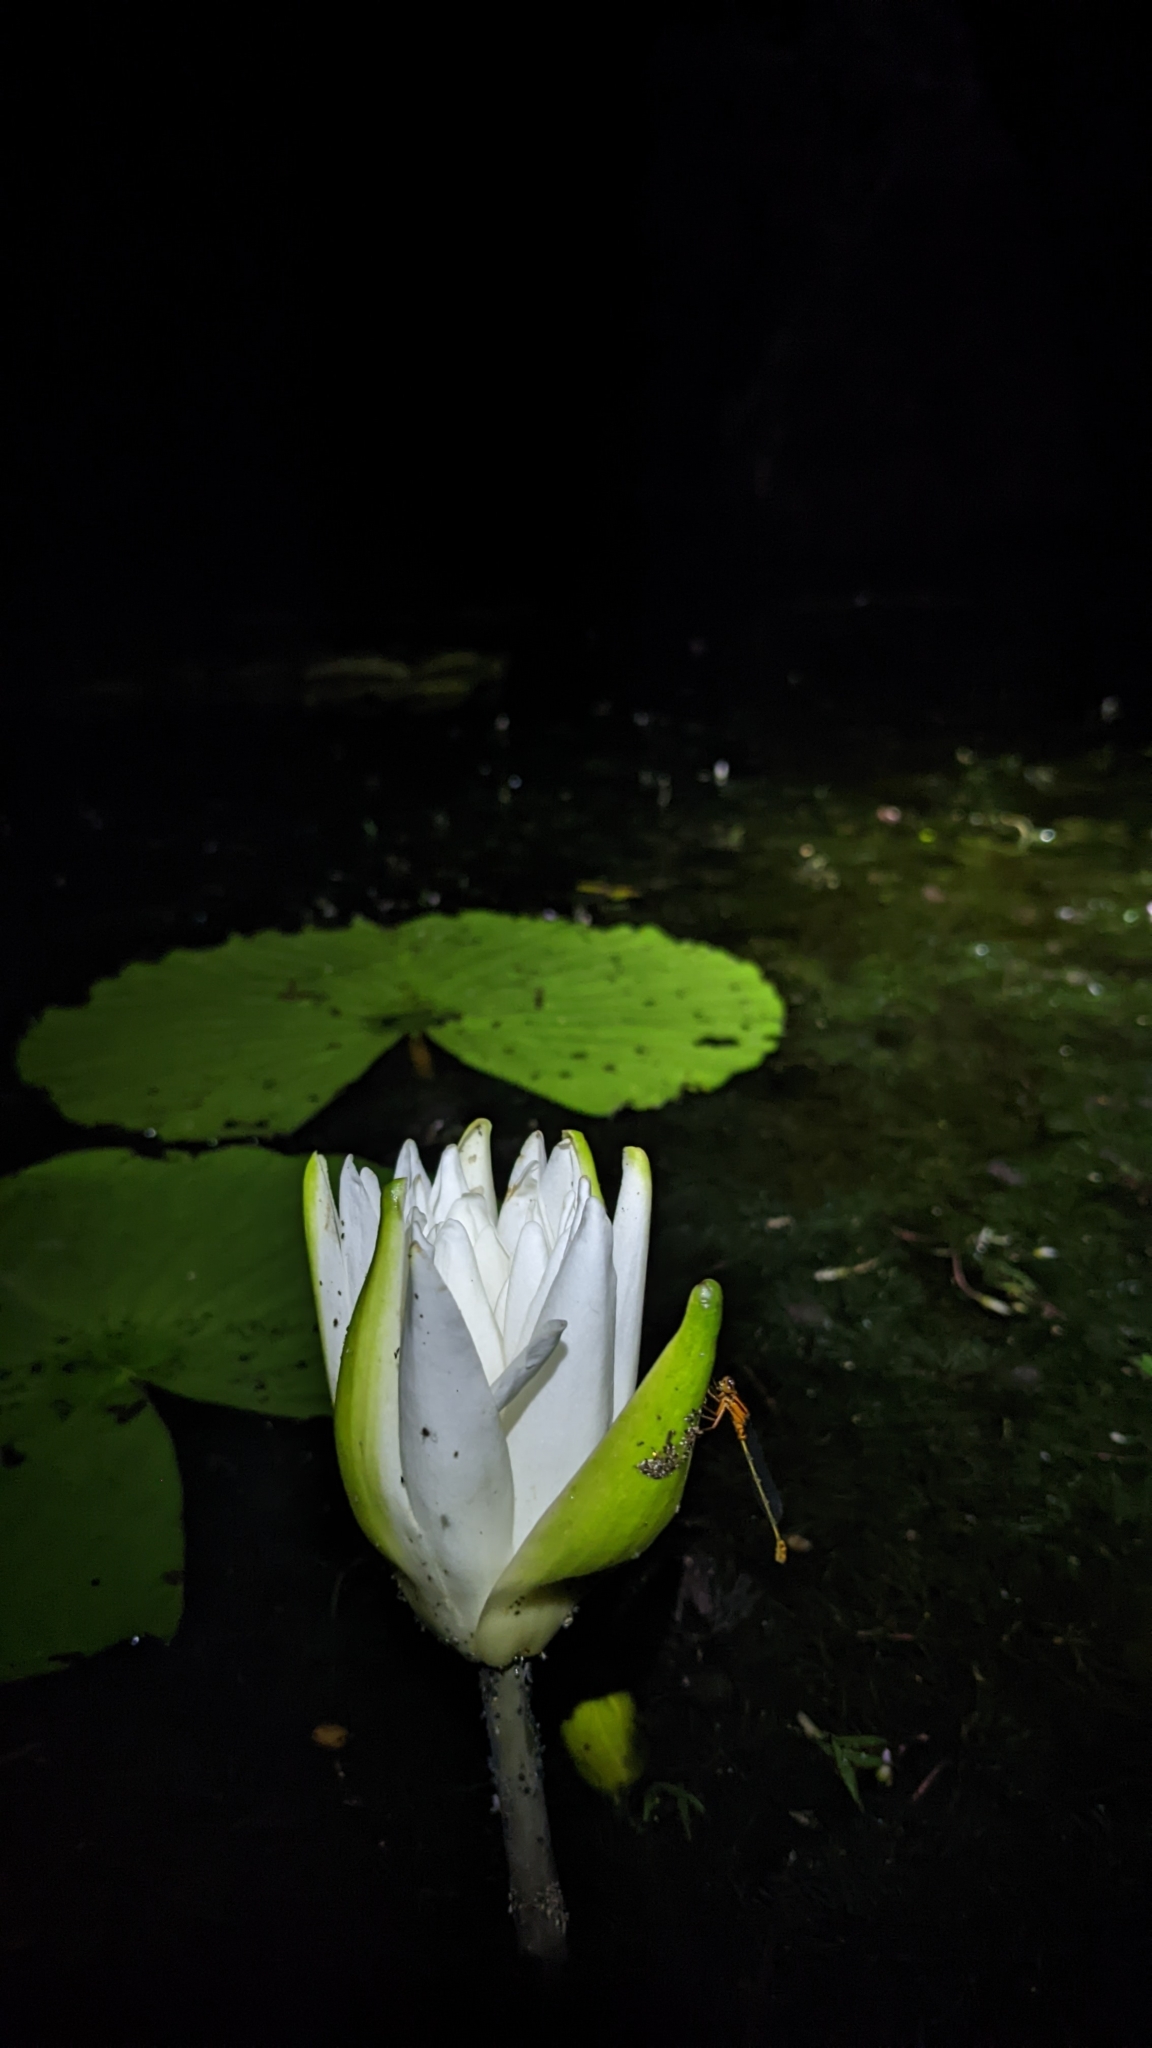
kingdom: Plantae
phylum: Tracheophyta
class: Magnoliopsida
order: Nymphaeales
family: Nymphaeaceae
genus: Nymphaea
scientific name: Nymphaea odorata
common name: Fragrant water-lily
